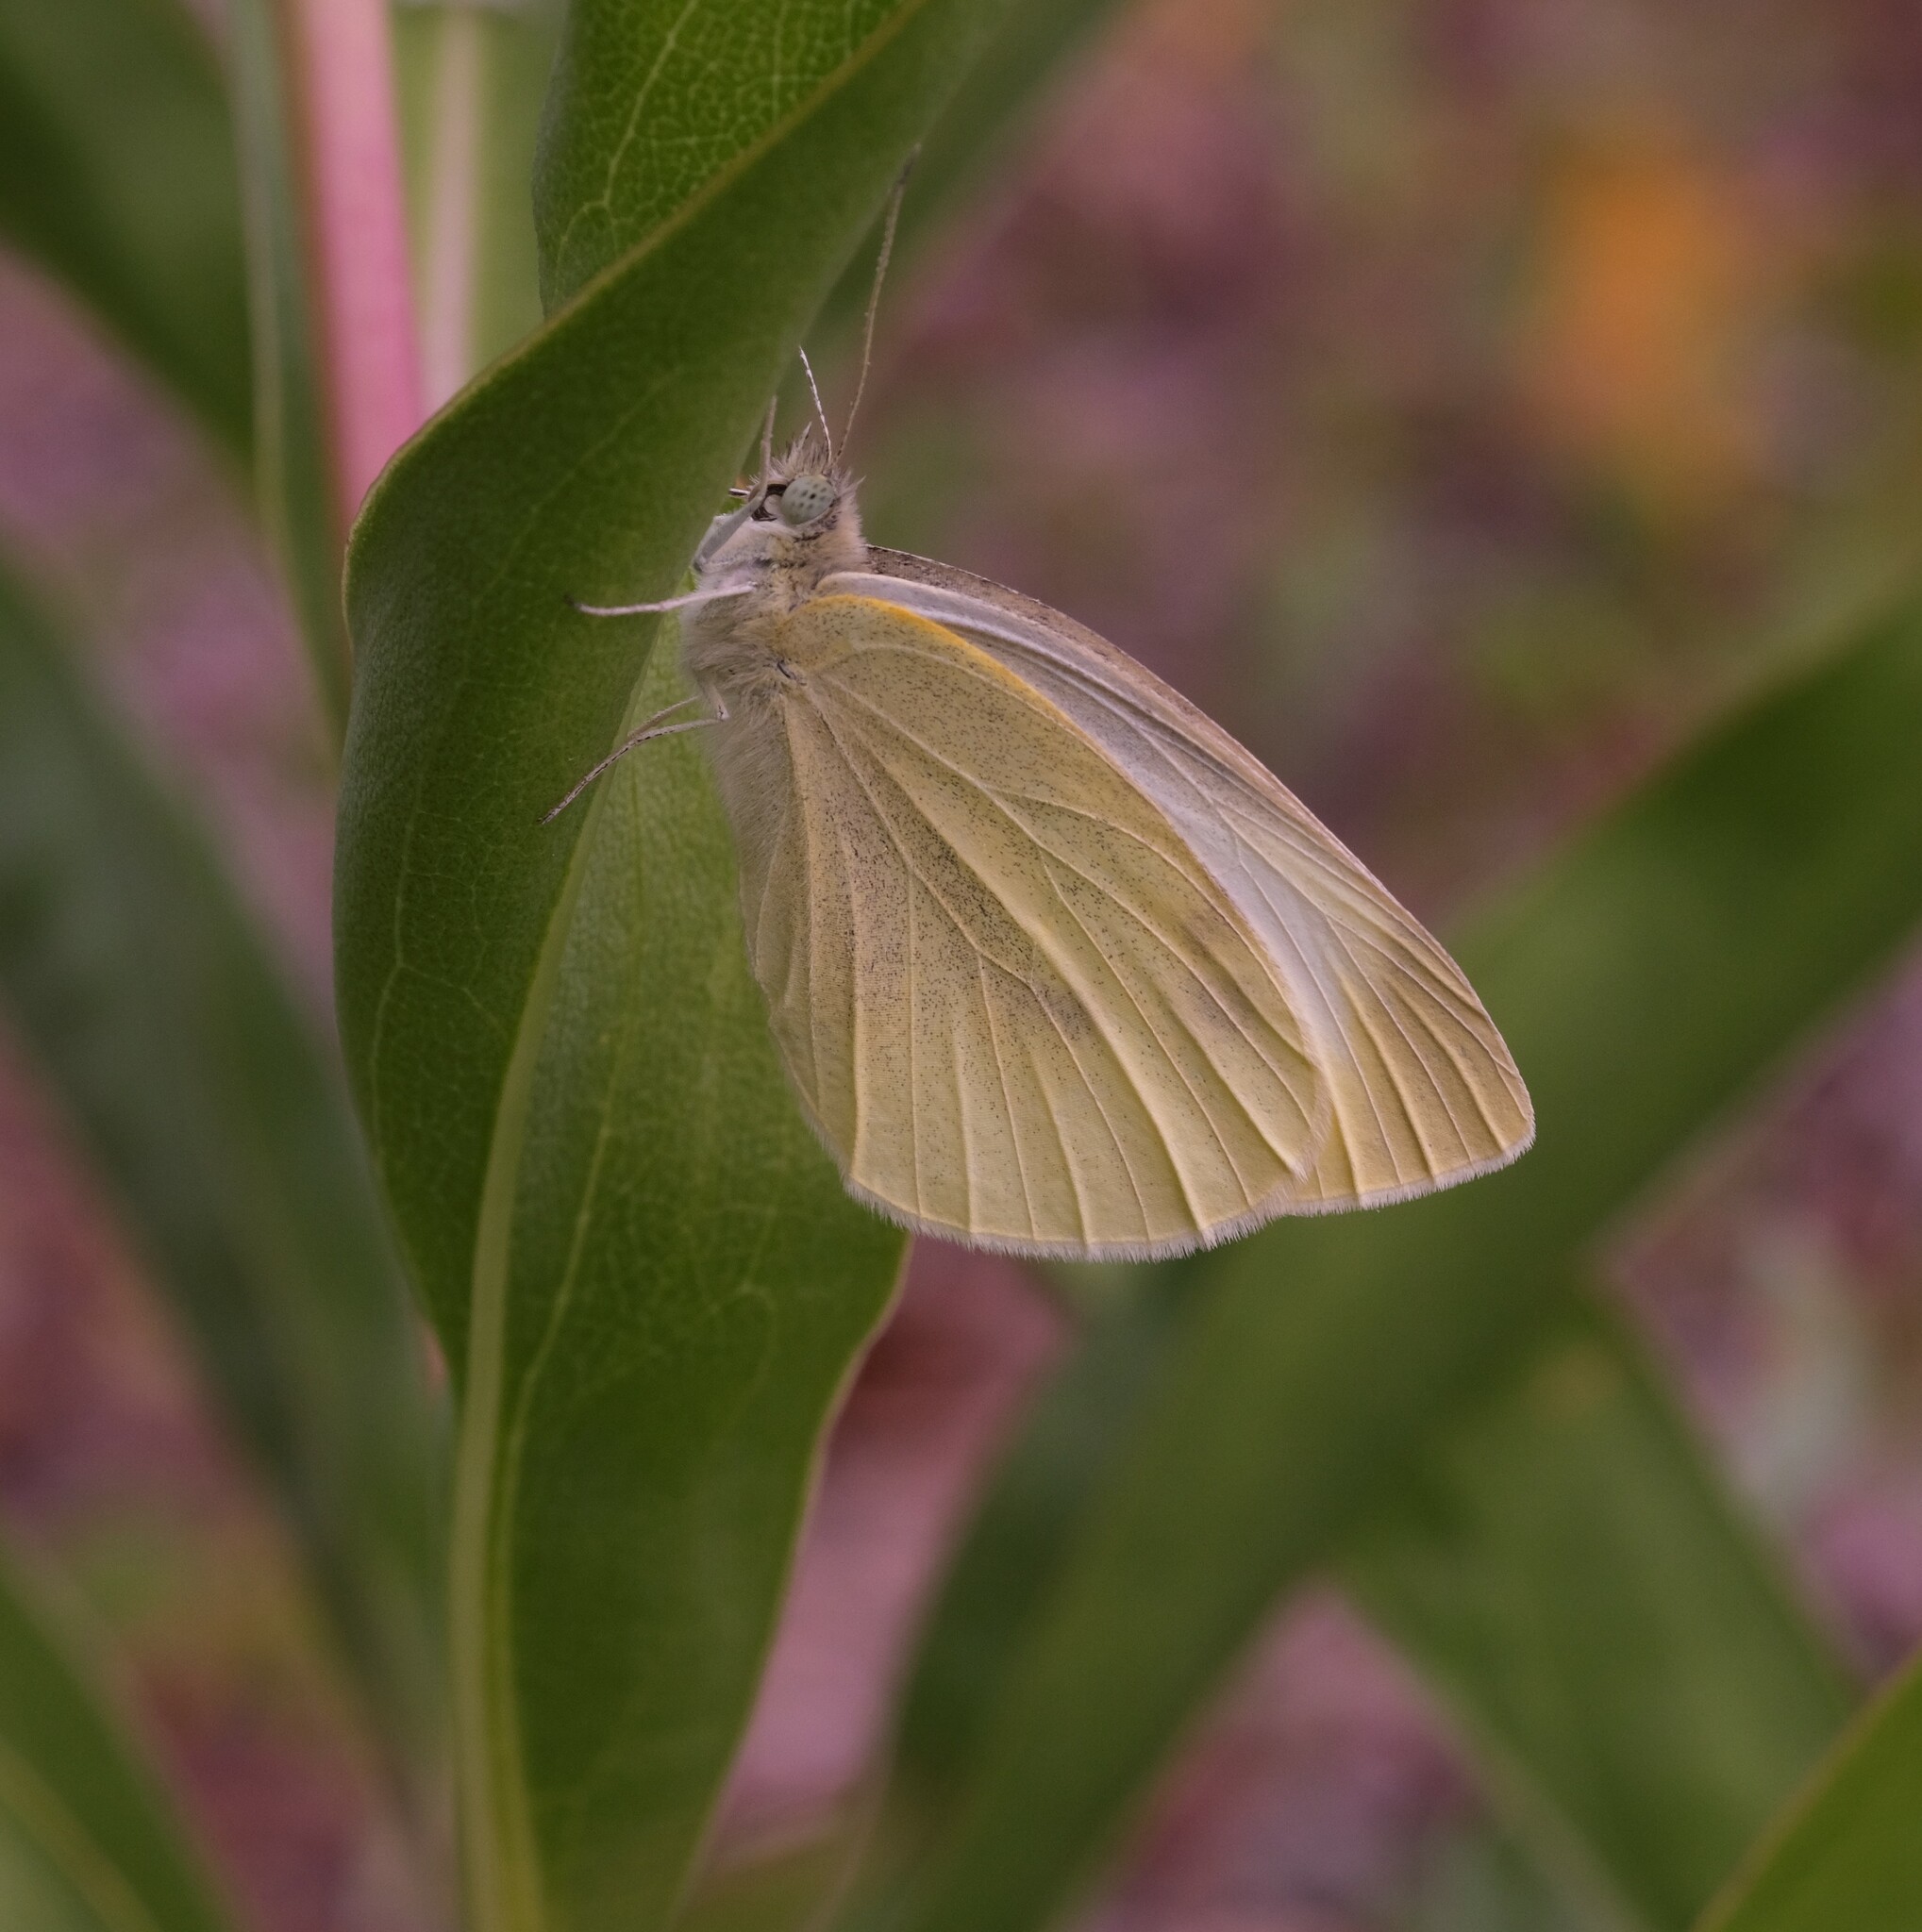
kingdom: Animalia
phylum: Arthropoda
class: Insecta
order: Lepidoptera
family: Pieridae
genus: Pieris
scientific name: Pieris rapae
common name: Small white
